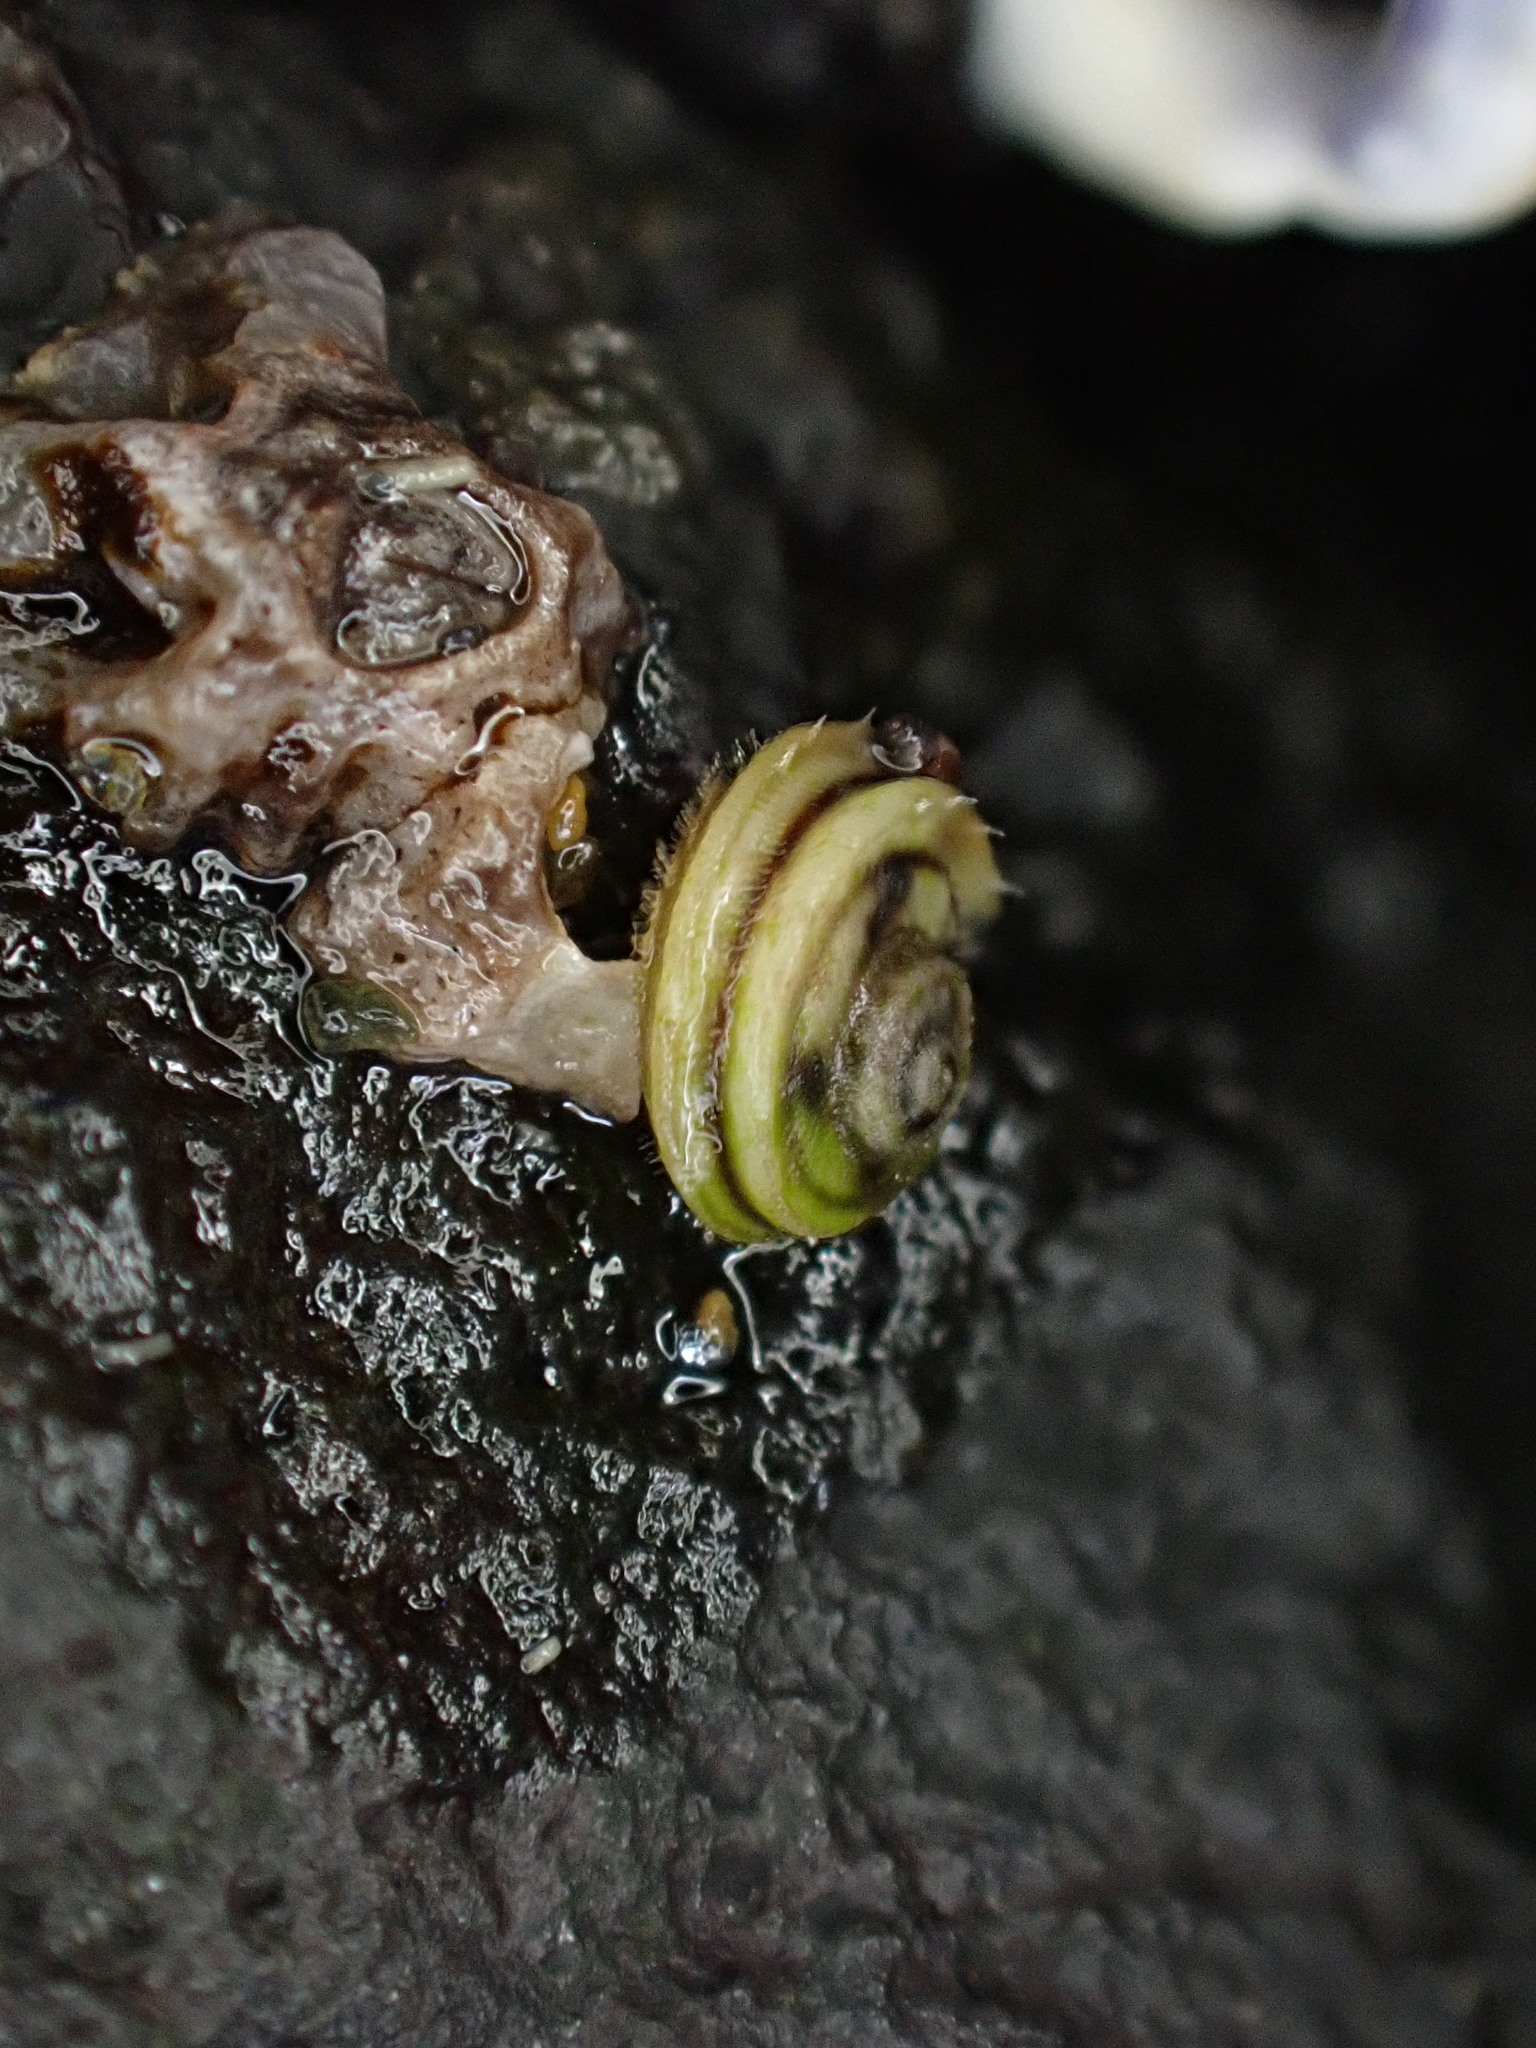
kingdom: Animalia
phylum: Mollusca
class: Gastropoda
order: Littorinimorpha
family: Littorinidae
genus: Risellopsis
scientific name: Risellopsis varia
